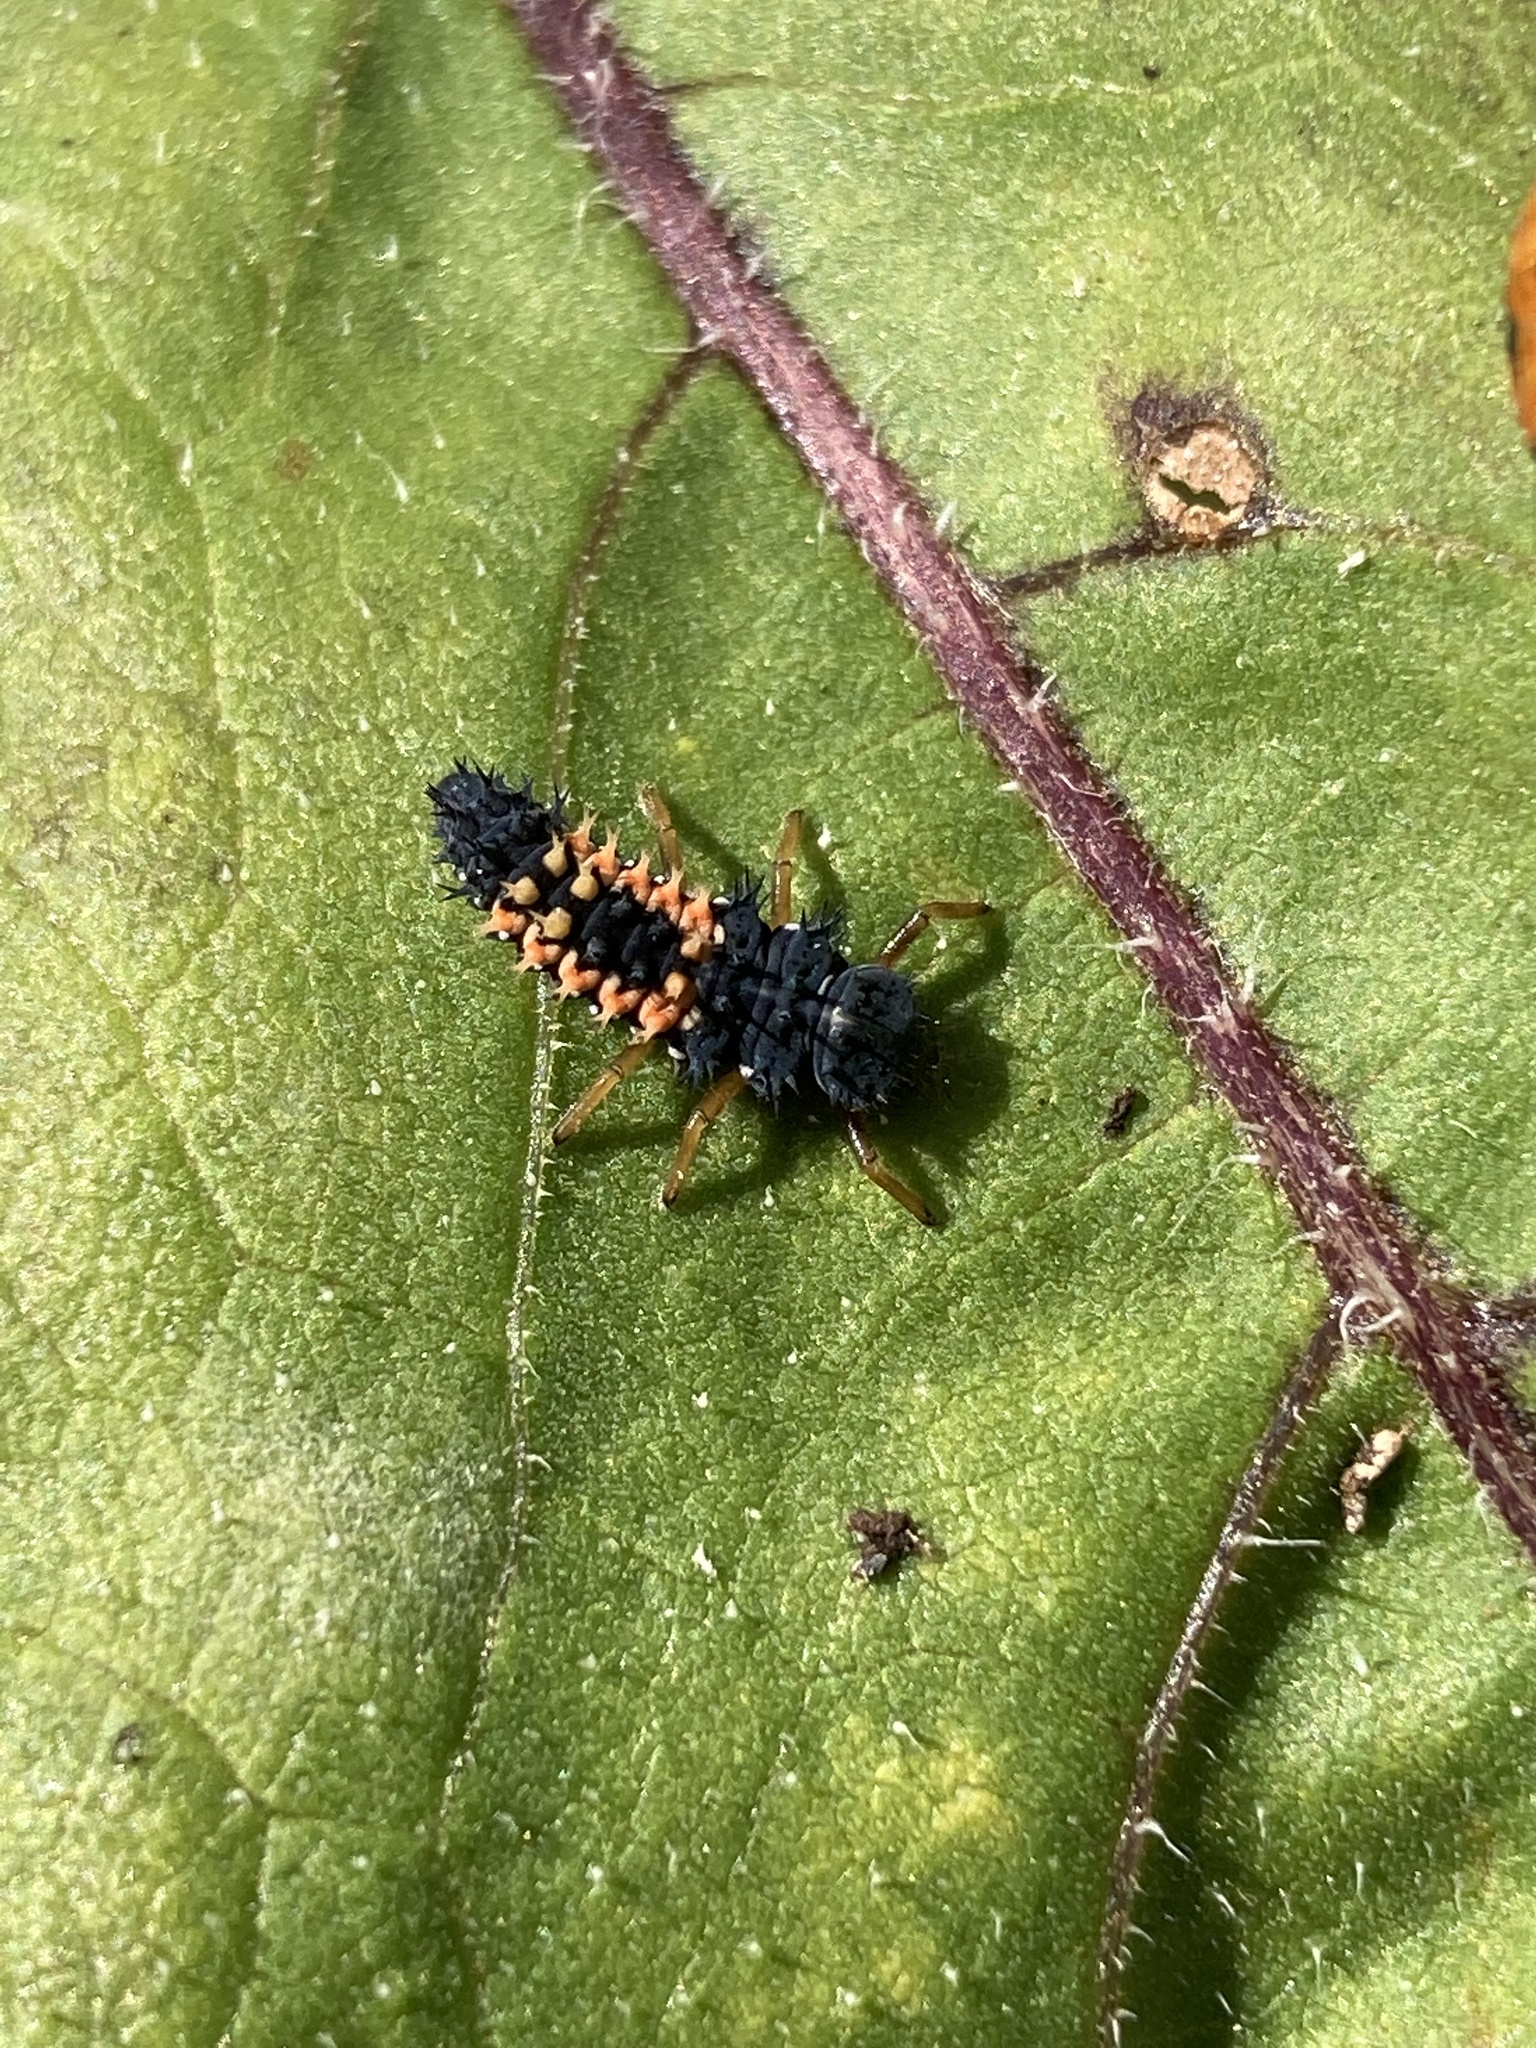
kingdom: Animalia
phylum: Arthropoda
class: Insecta
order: Coleoptera
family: Coccinellidae
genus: Harmonia
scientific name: Harmonia axyridis
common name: Harlequin ladybird
